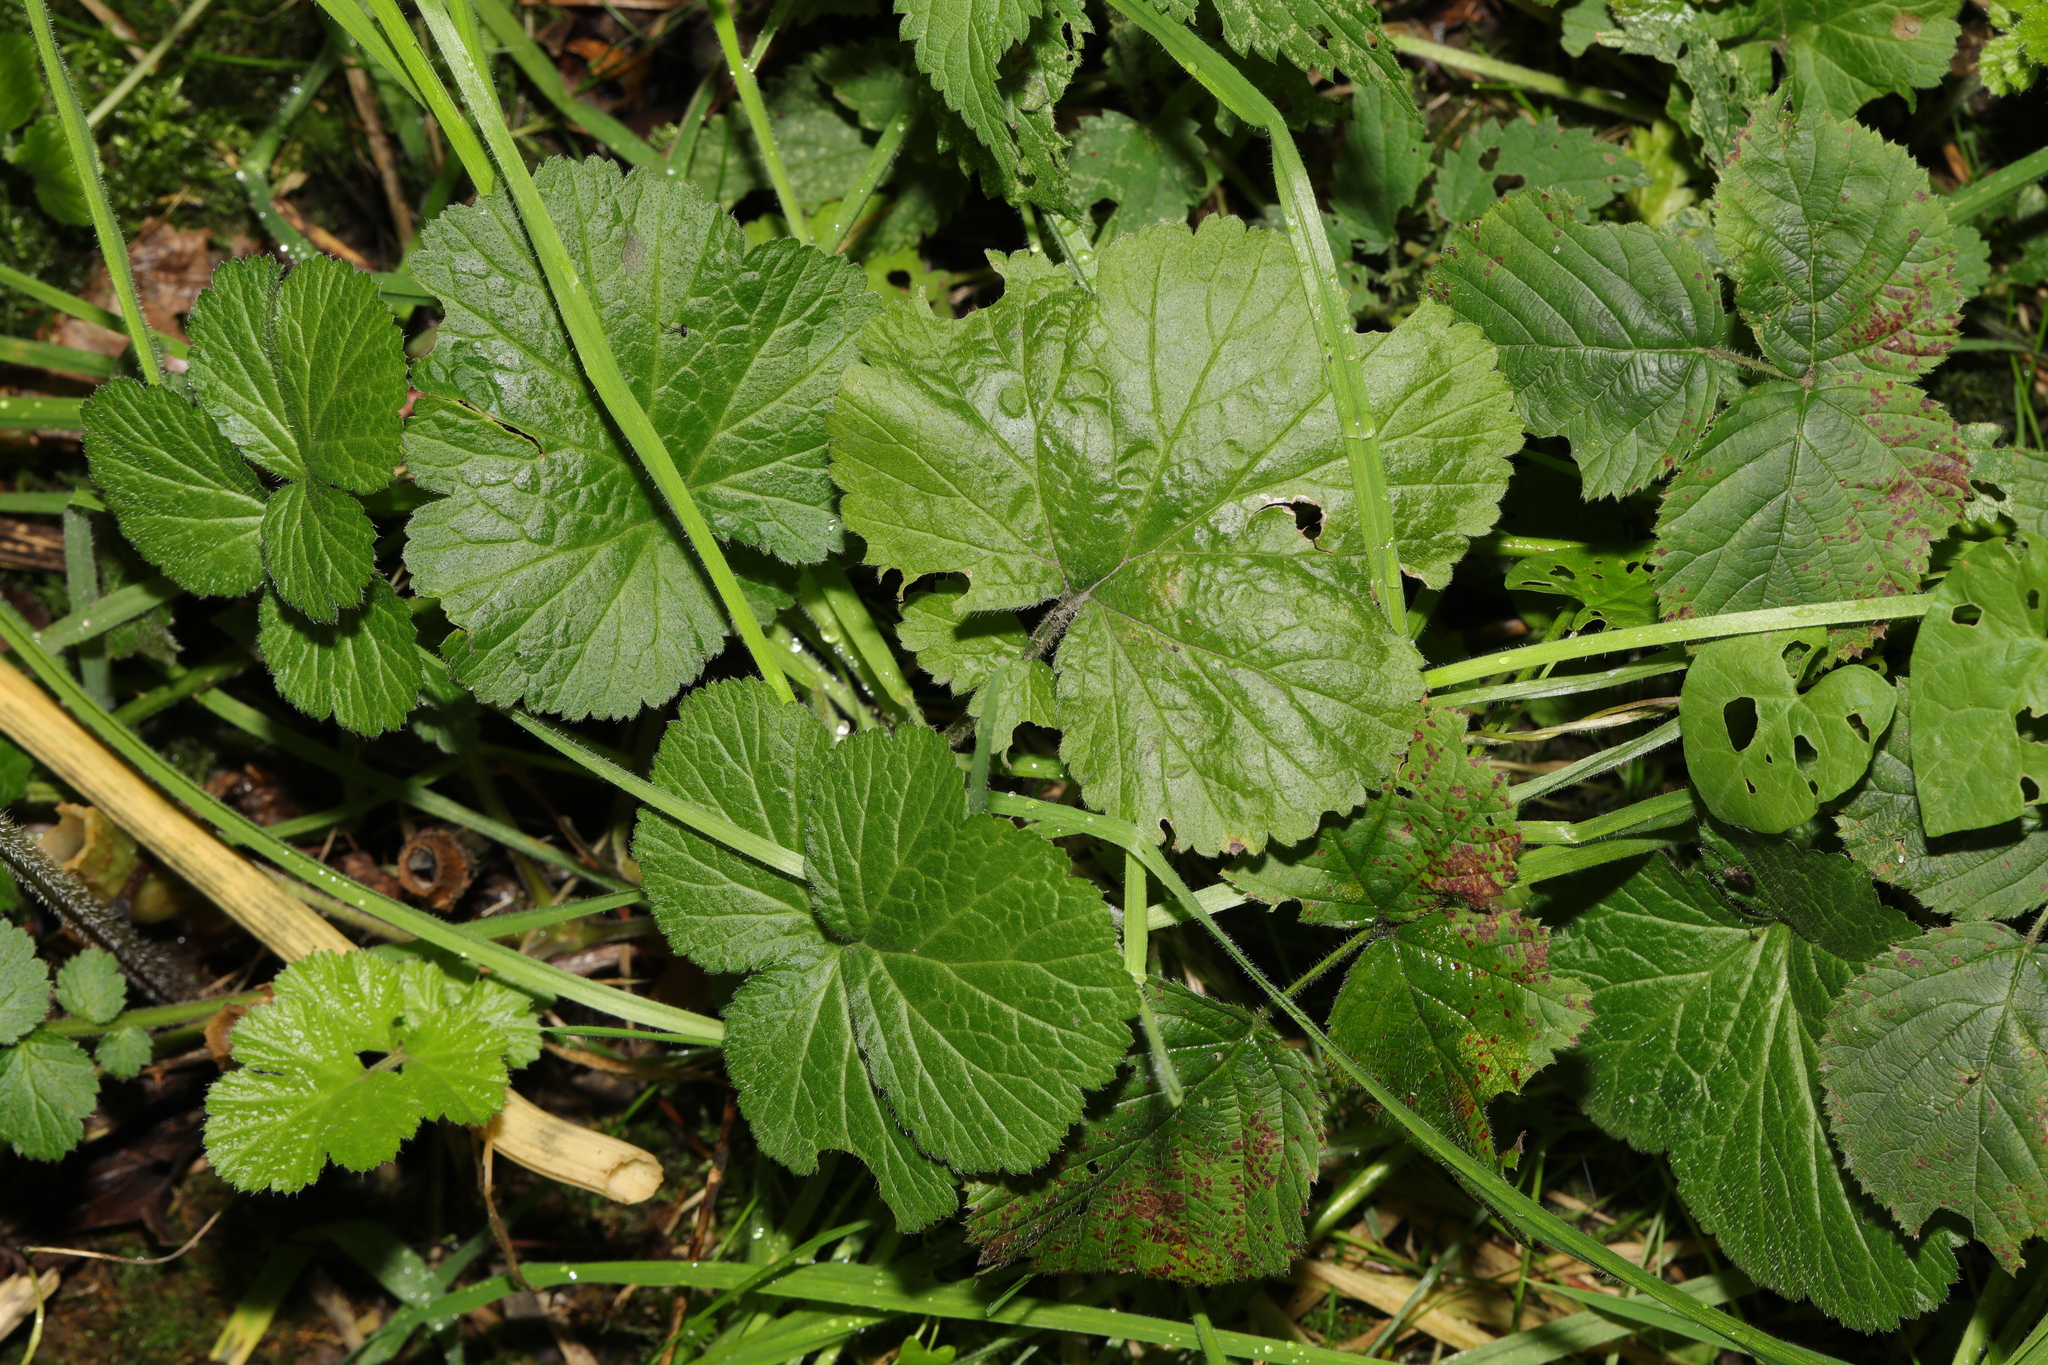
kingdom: Plantae
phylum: Tracheophyta
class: Magnoliopsida
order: Rosales
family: Rosaceae
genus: Geum
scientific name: Geum urbanum
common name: Wood avens
